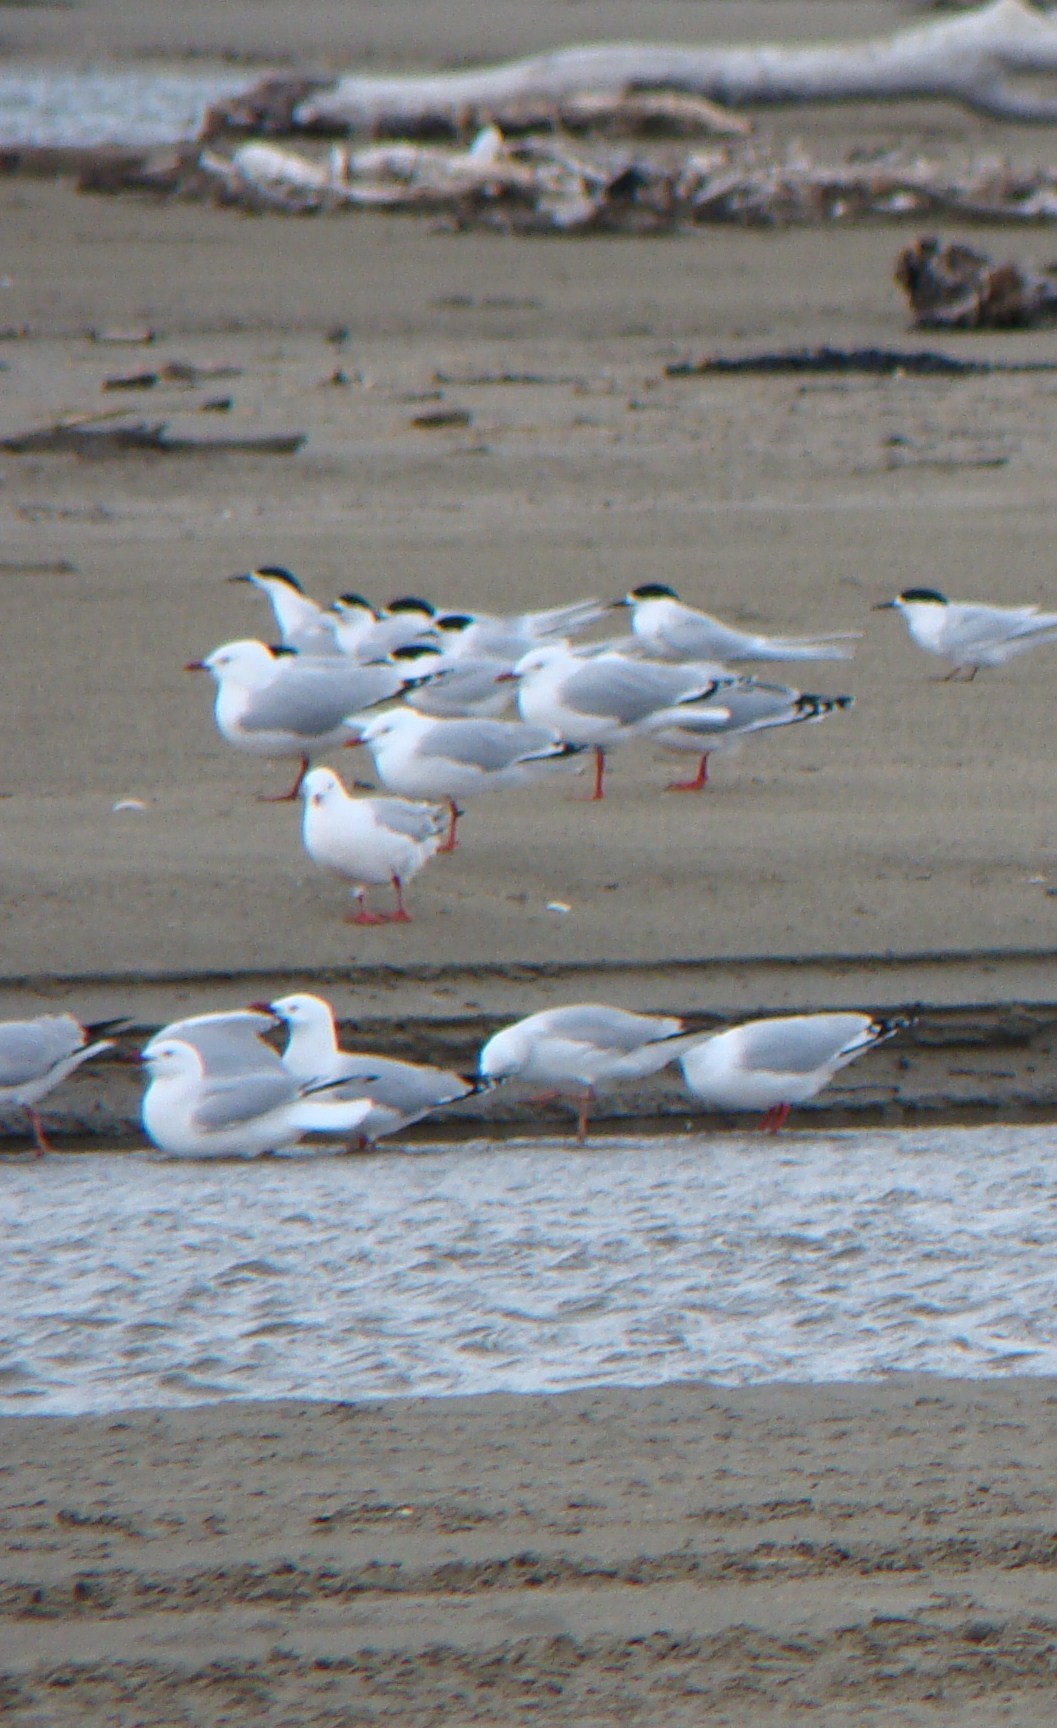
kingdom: Animalia
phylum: Chordata
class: Aves
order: Charadriiformes
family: Laridae
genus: Chroicocephalus
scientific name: Chroicocephalus novaehollandiae
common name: Silver gull
